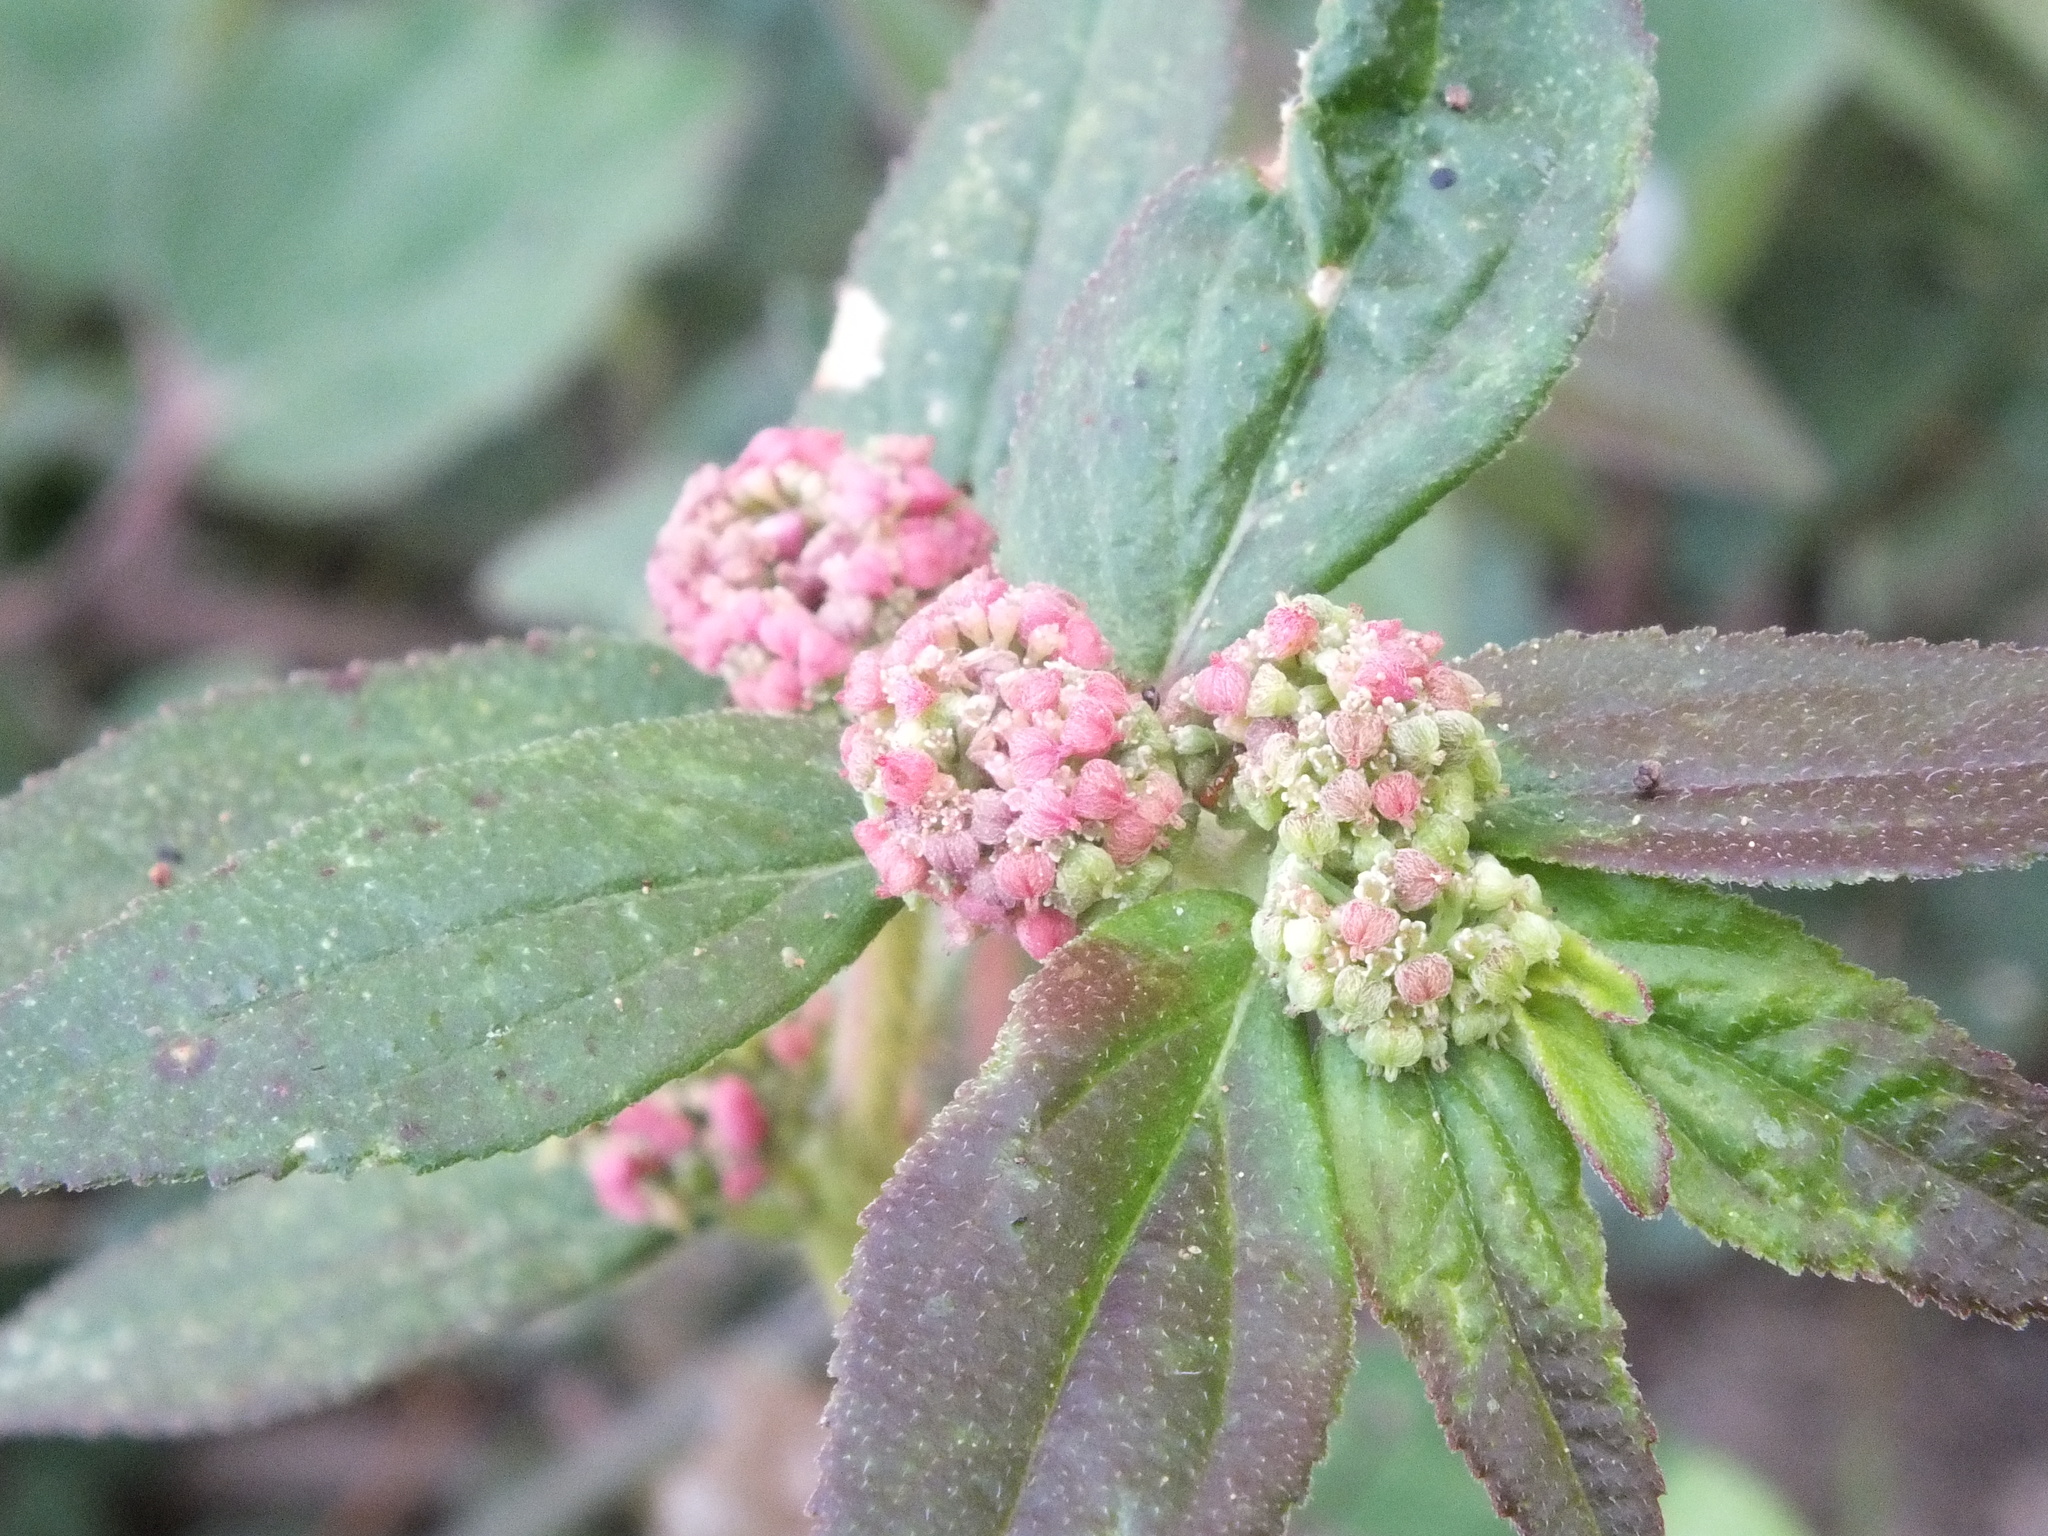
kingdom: Plantae
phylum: Tracheophyta
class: Magnoliopsida
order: Malpighiales
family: Euphorbiaceae
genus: Euphorbia
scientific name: Euphorbia hirta
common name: Pillpod sandmat
